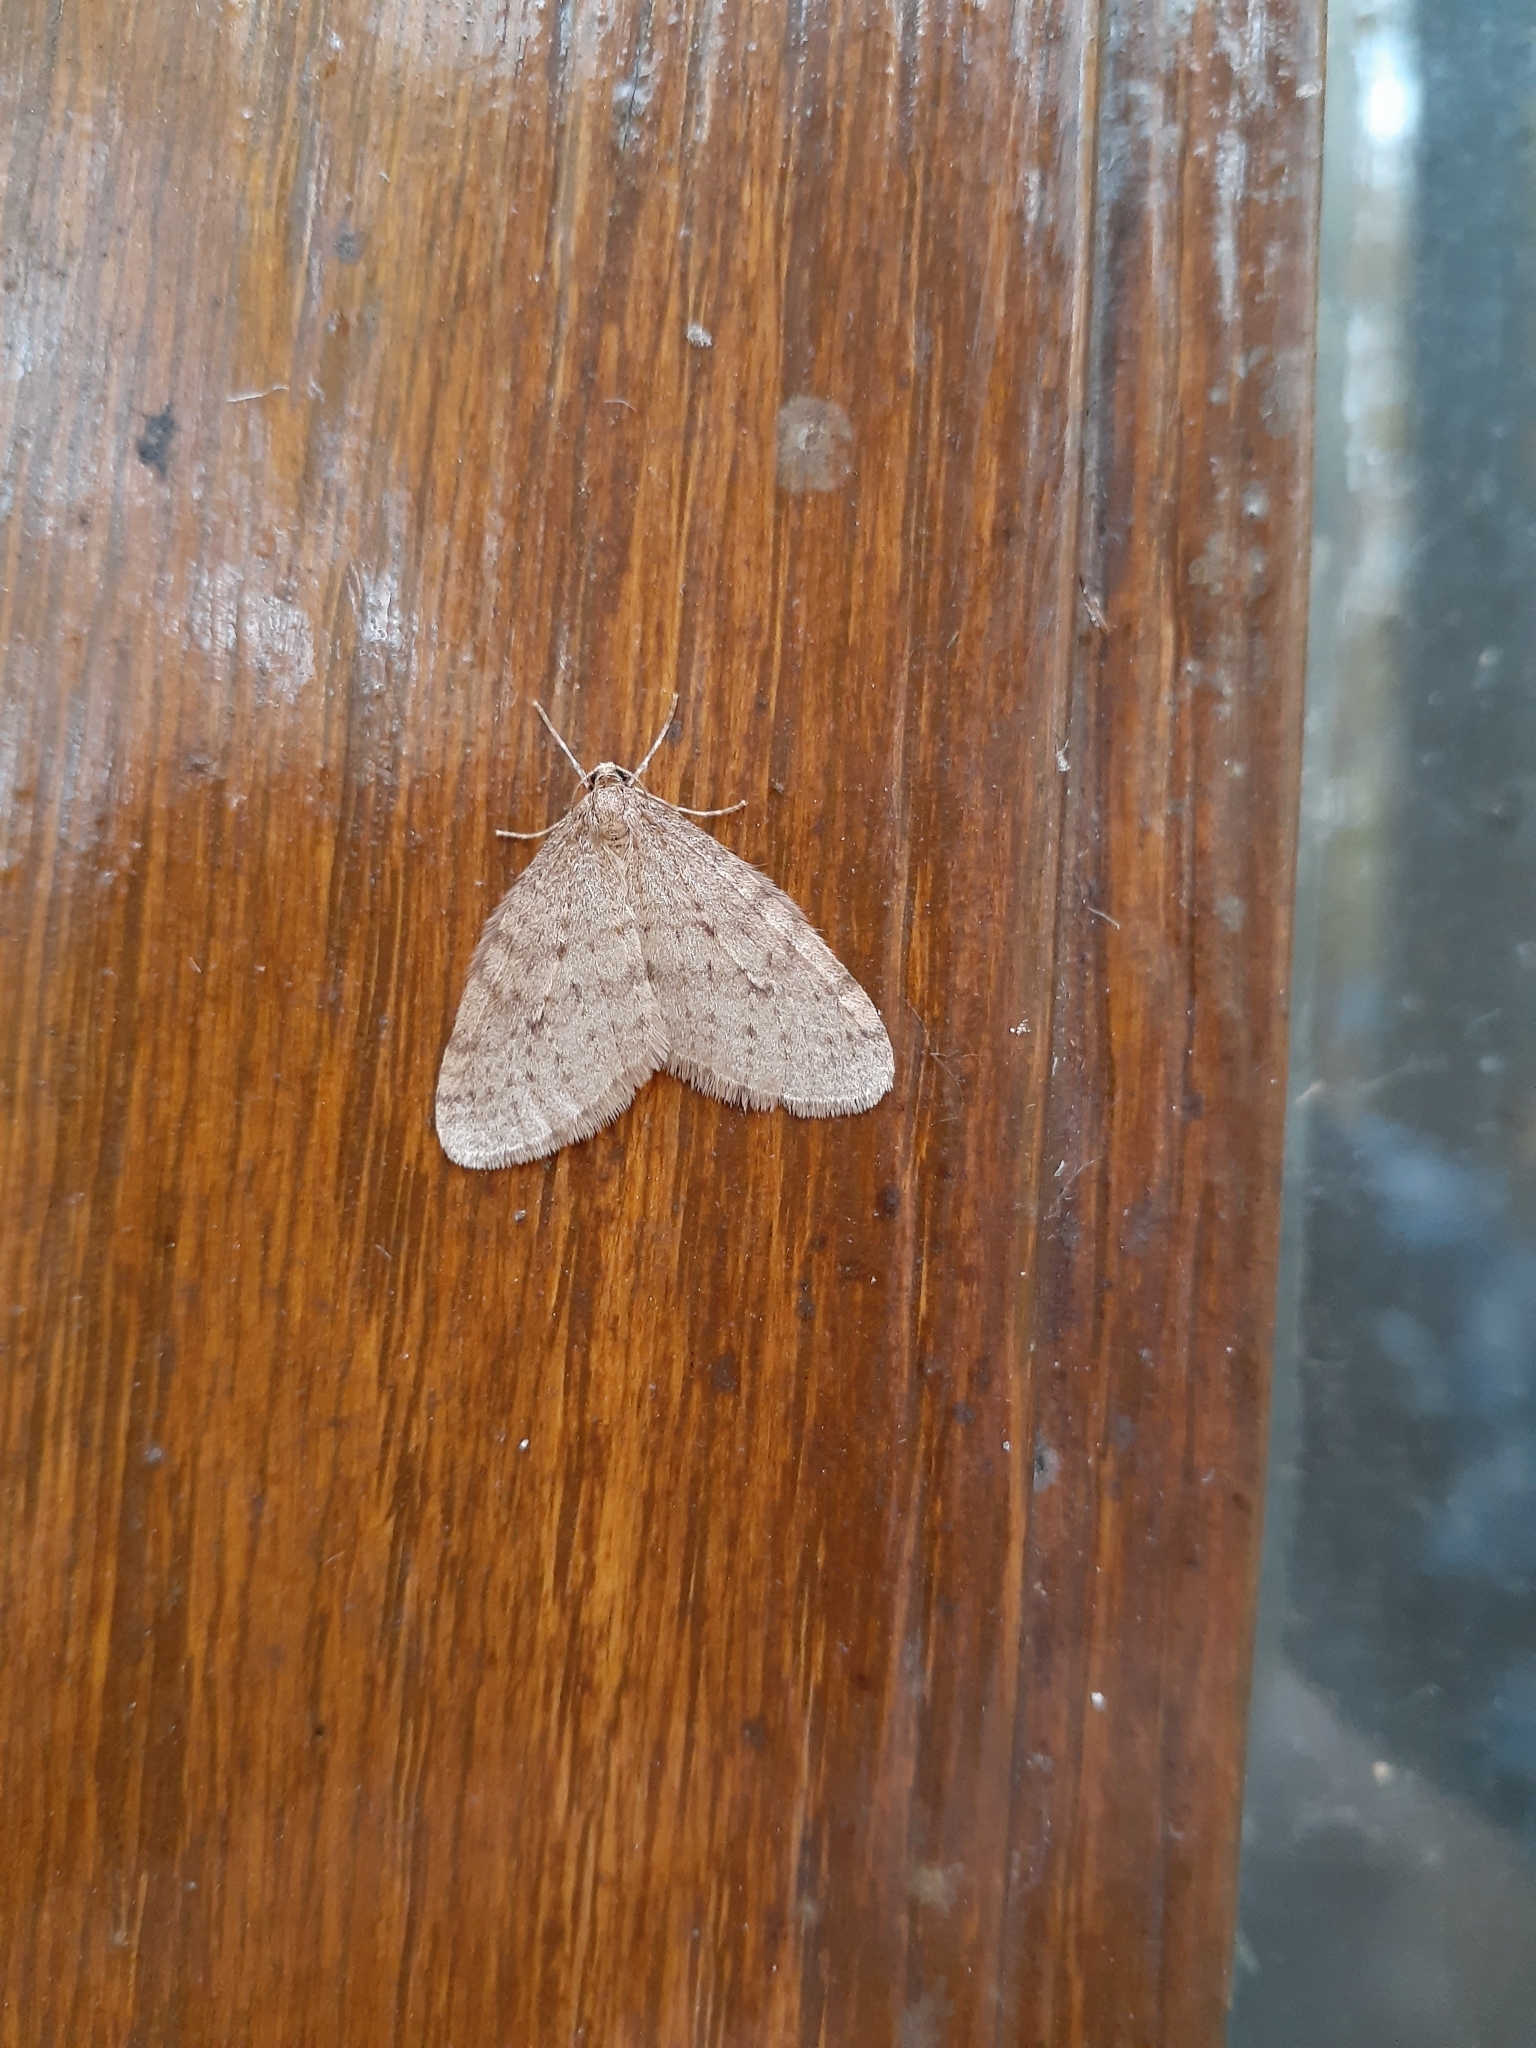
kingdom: Animalia
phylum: Arthropoda
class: Insecta
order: Lepidoptera
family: Geometridae
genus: Epirrita
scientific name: Epirrita autumnata
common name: Autumnal moth
